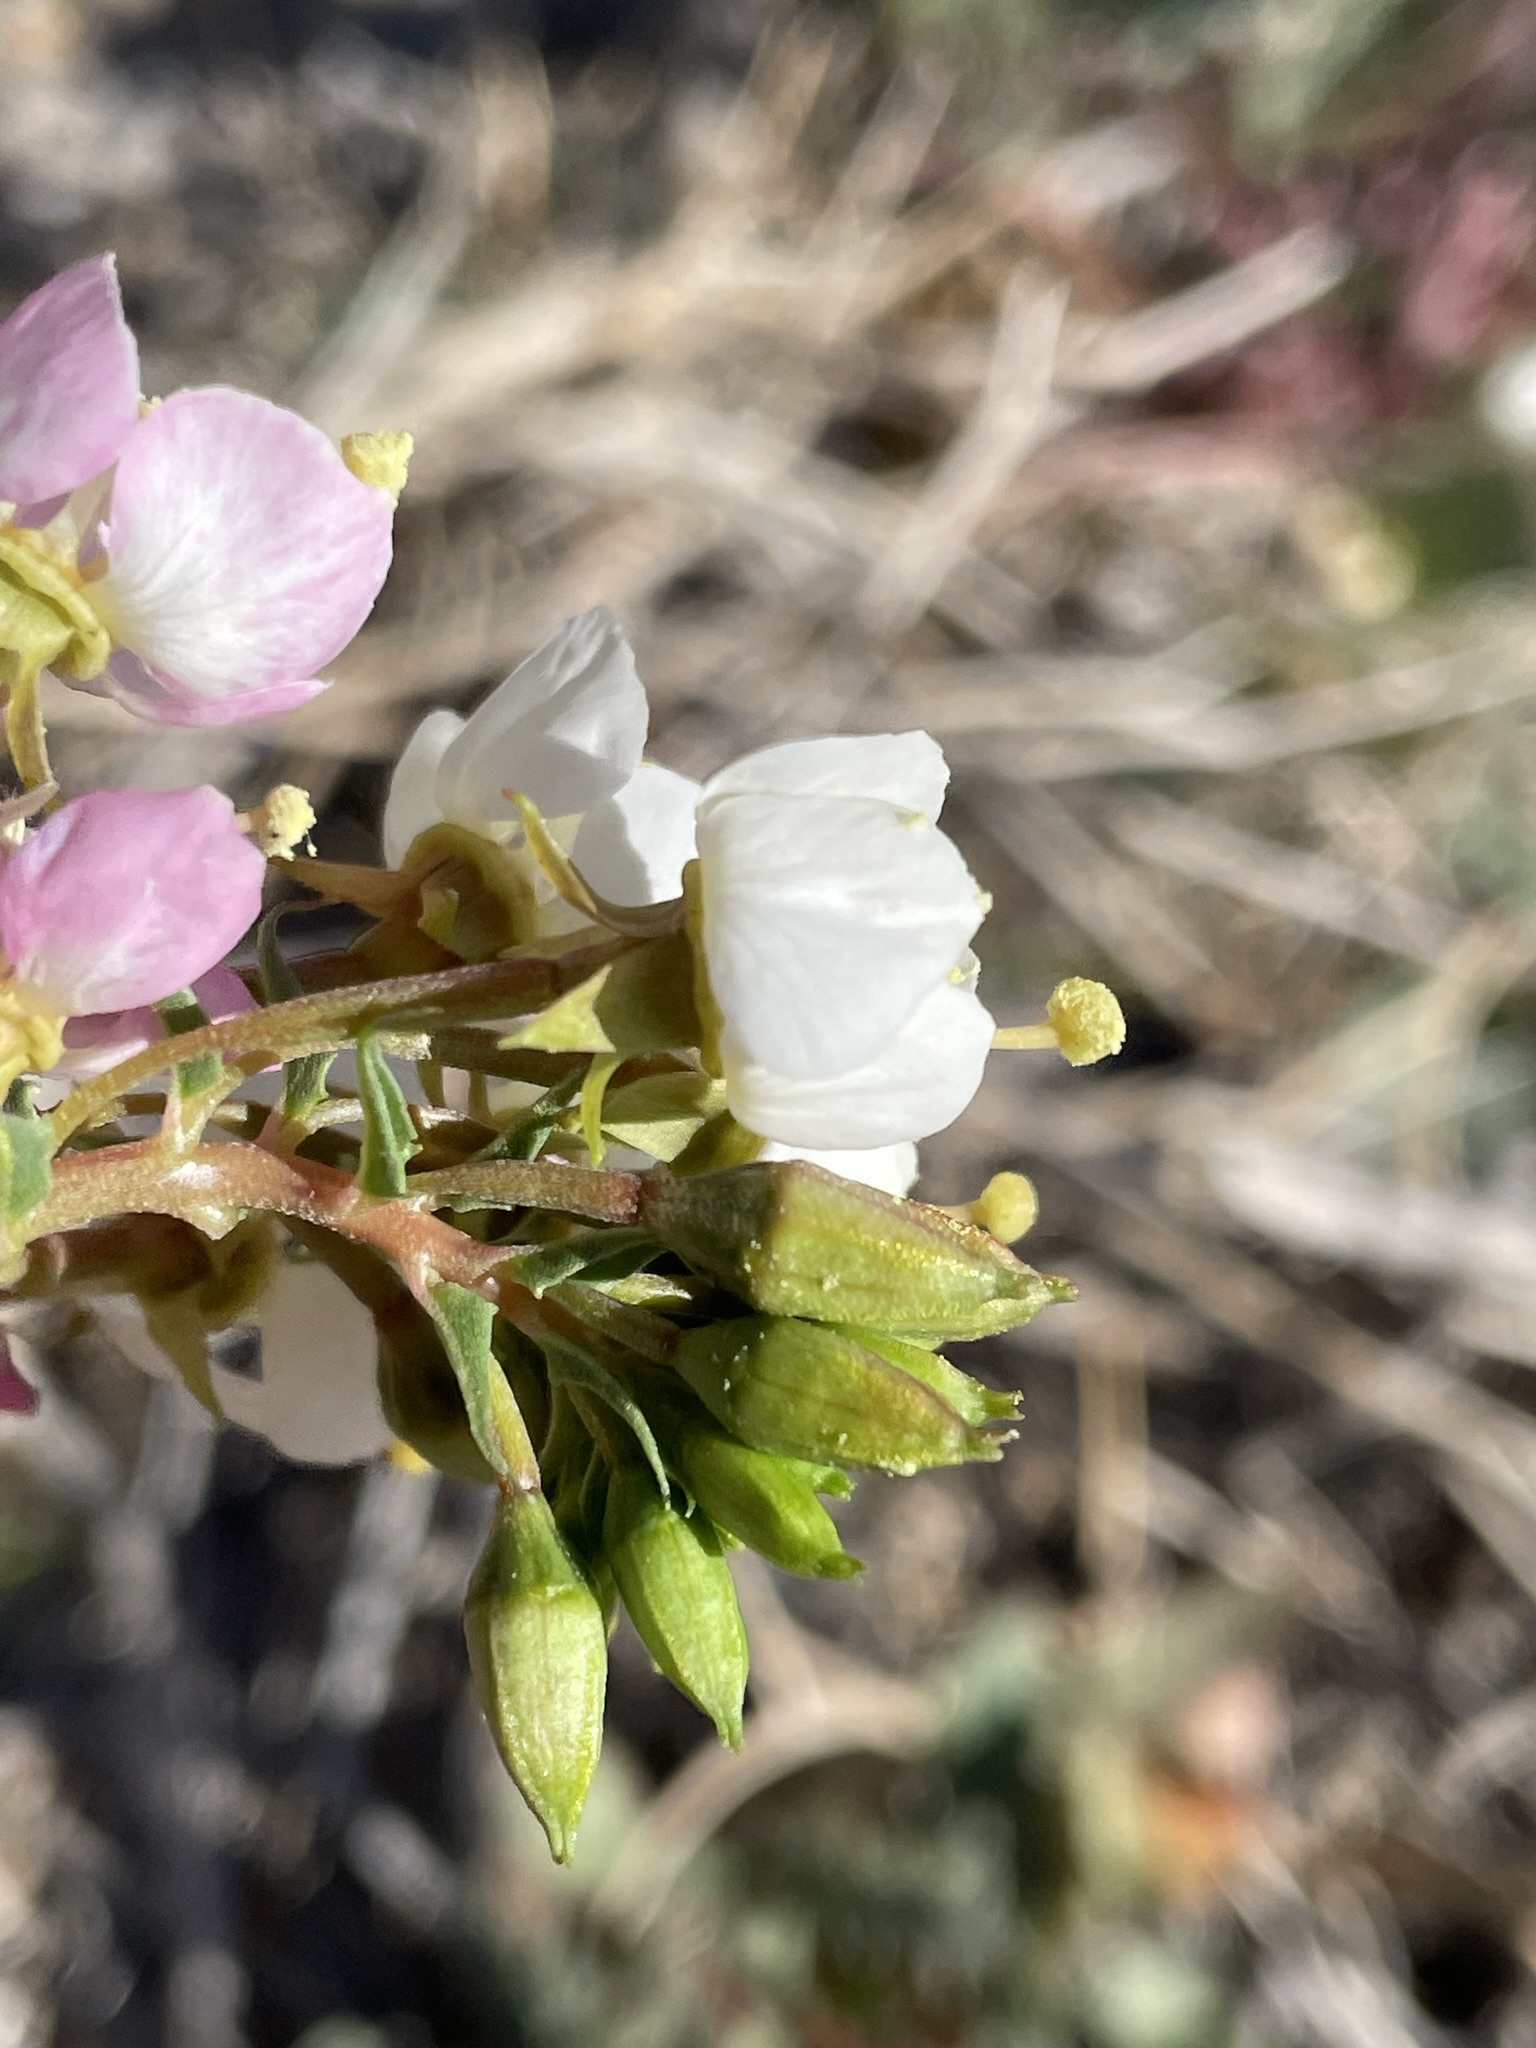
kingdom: Plantae
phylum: Tracheophyta
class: Magnoliopsida
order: Myrtales
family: Onagraceae
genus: Chylismia
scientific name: Chylismia claviformis
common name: Browneyes
